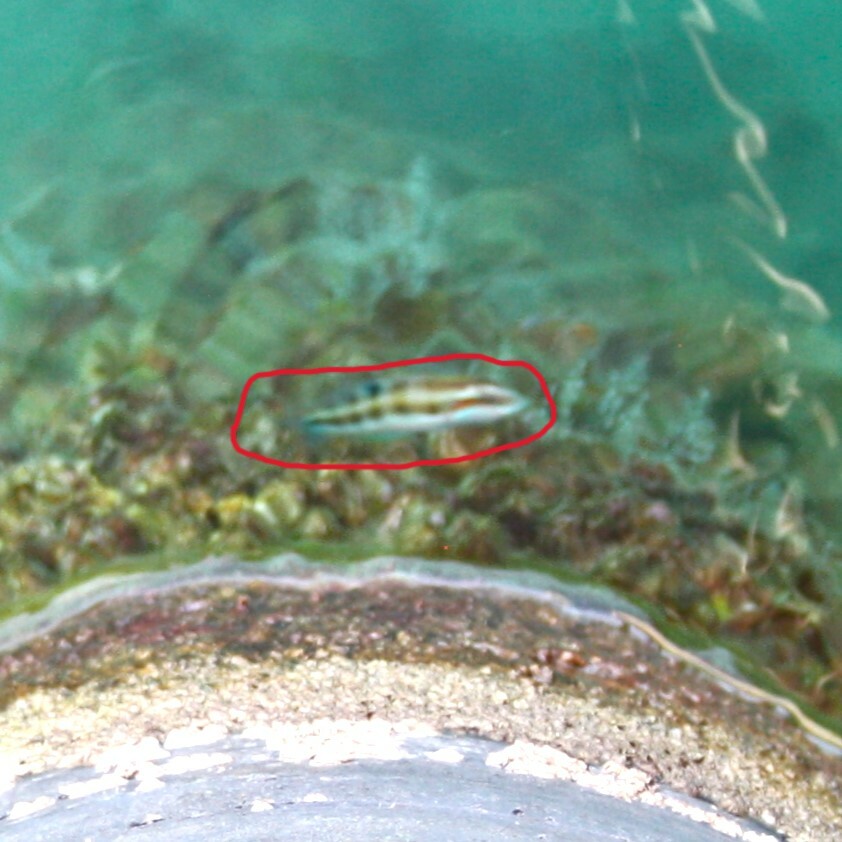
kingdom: Animalia
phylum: Chordata
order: Perciformes
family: Labridae
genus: Thalassoma
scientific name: Thalassoma pavo
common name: Ornate wrasse
